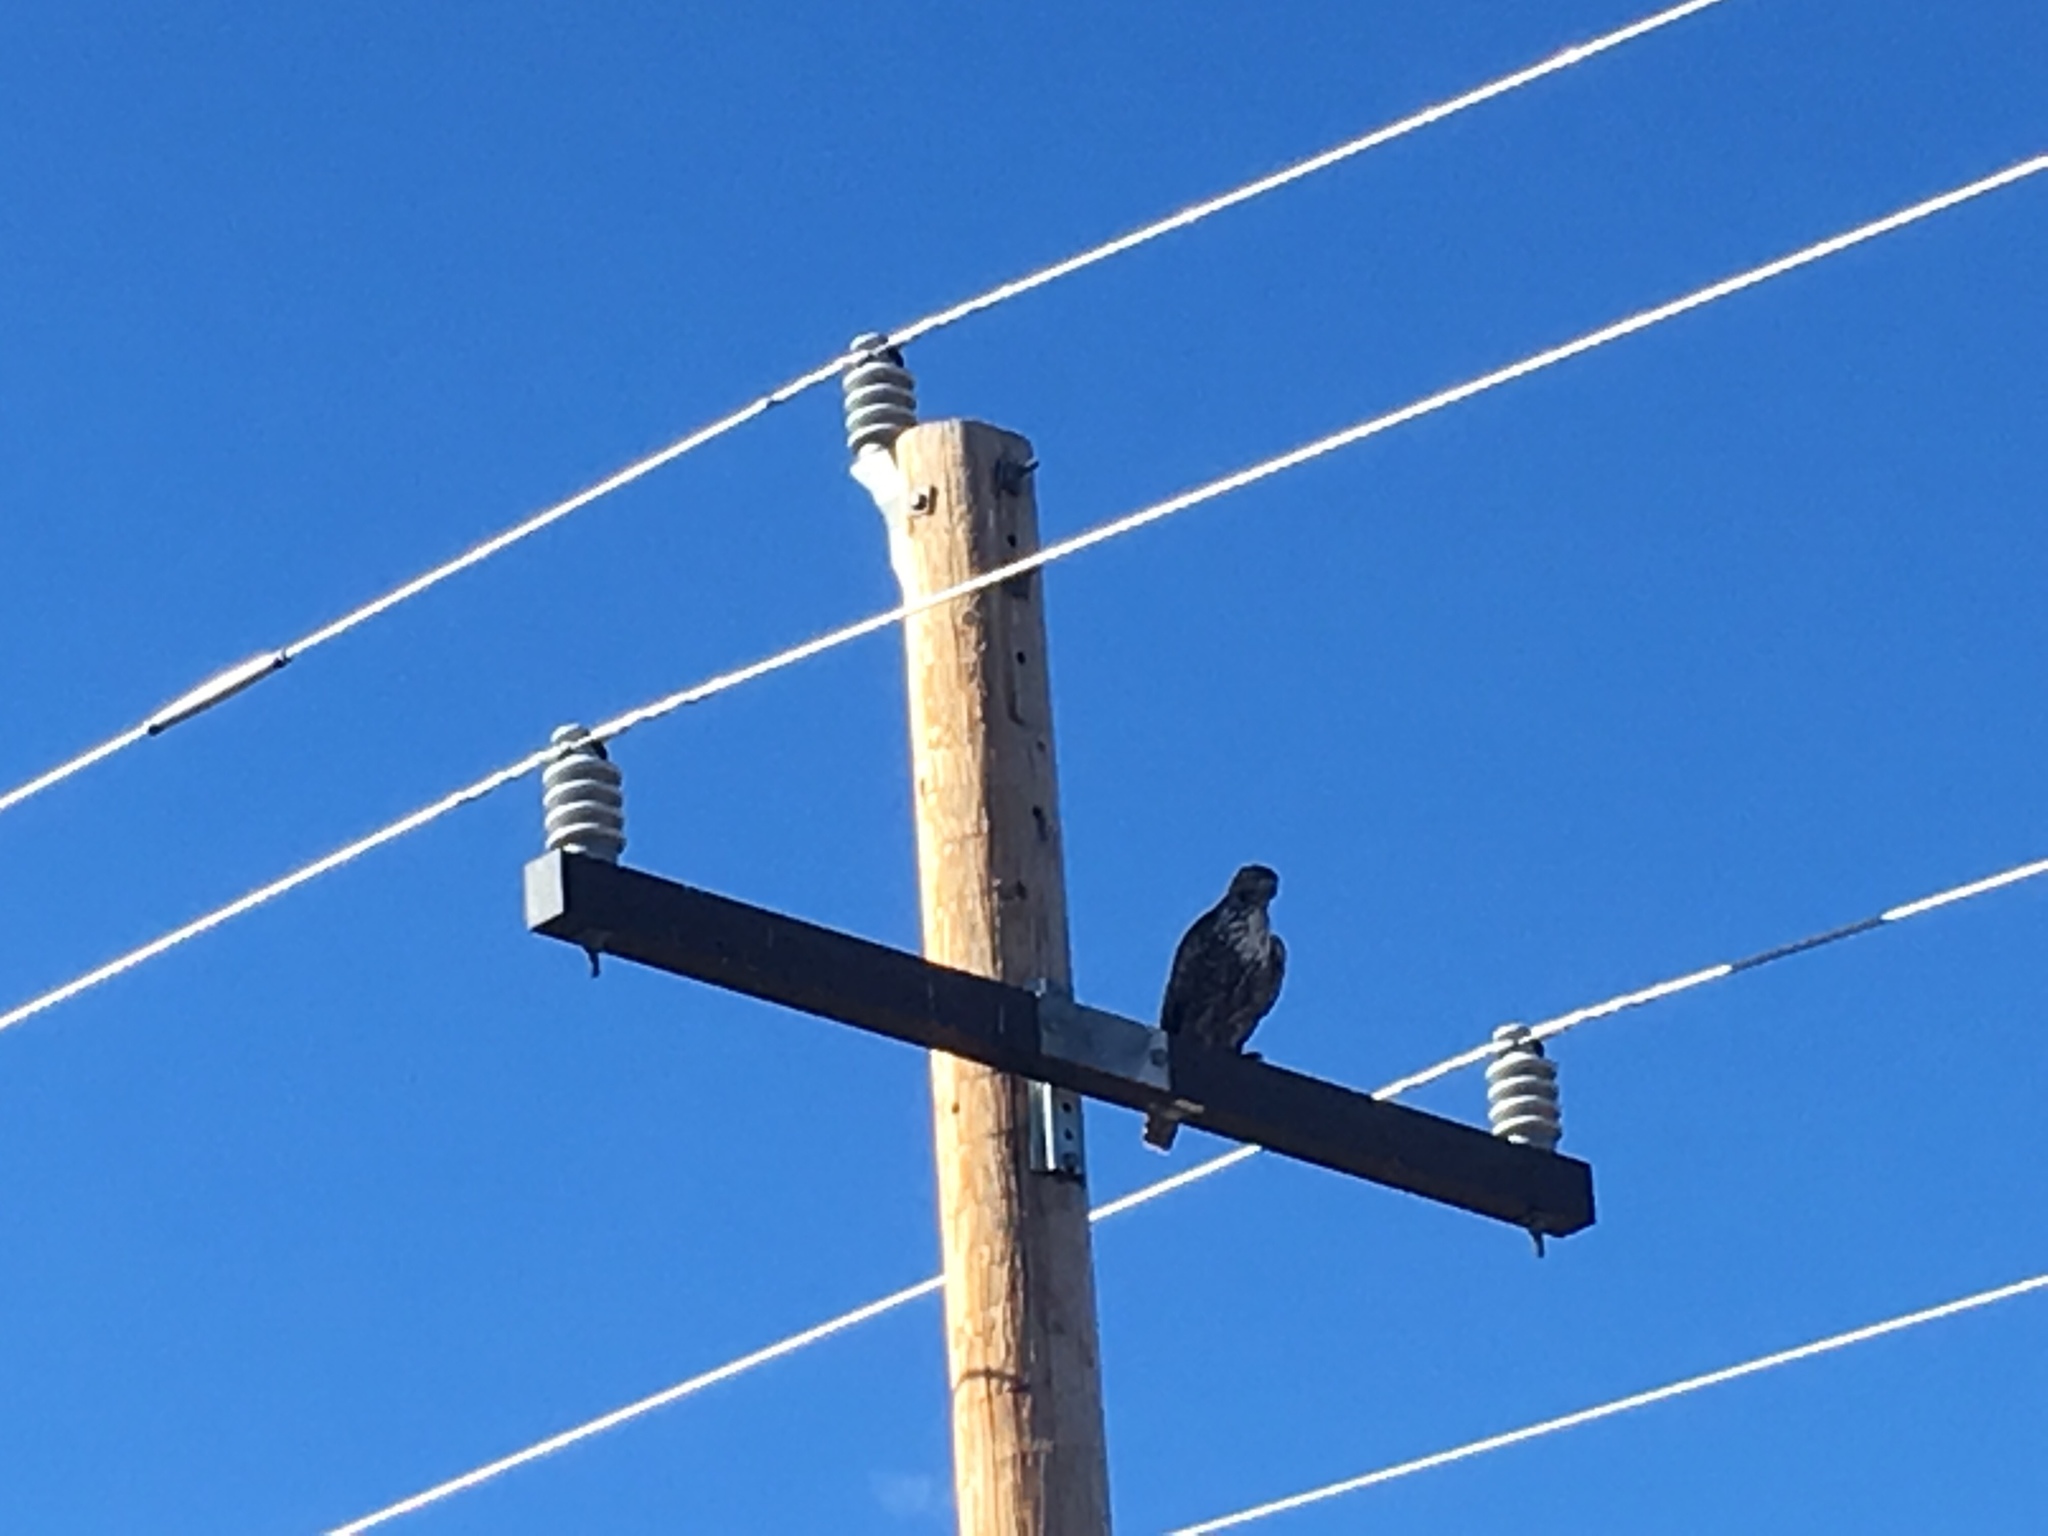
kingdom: Animalia
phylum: Chordata
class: Aves
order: Accipitriformes
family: Accipitridae
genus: Buteo
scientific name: Buteo jamaicensis
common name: Red-tailed hawk
